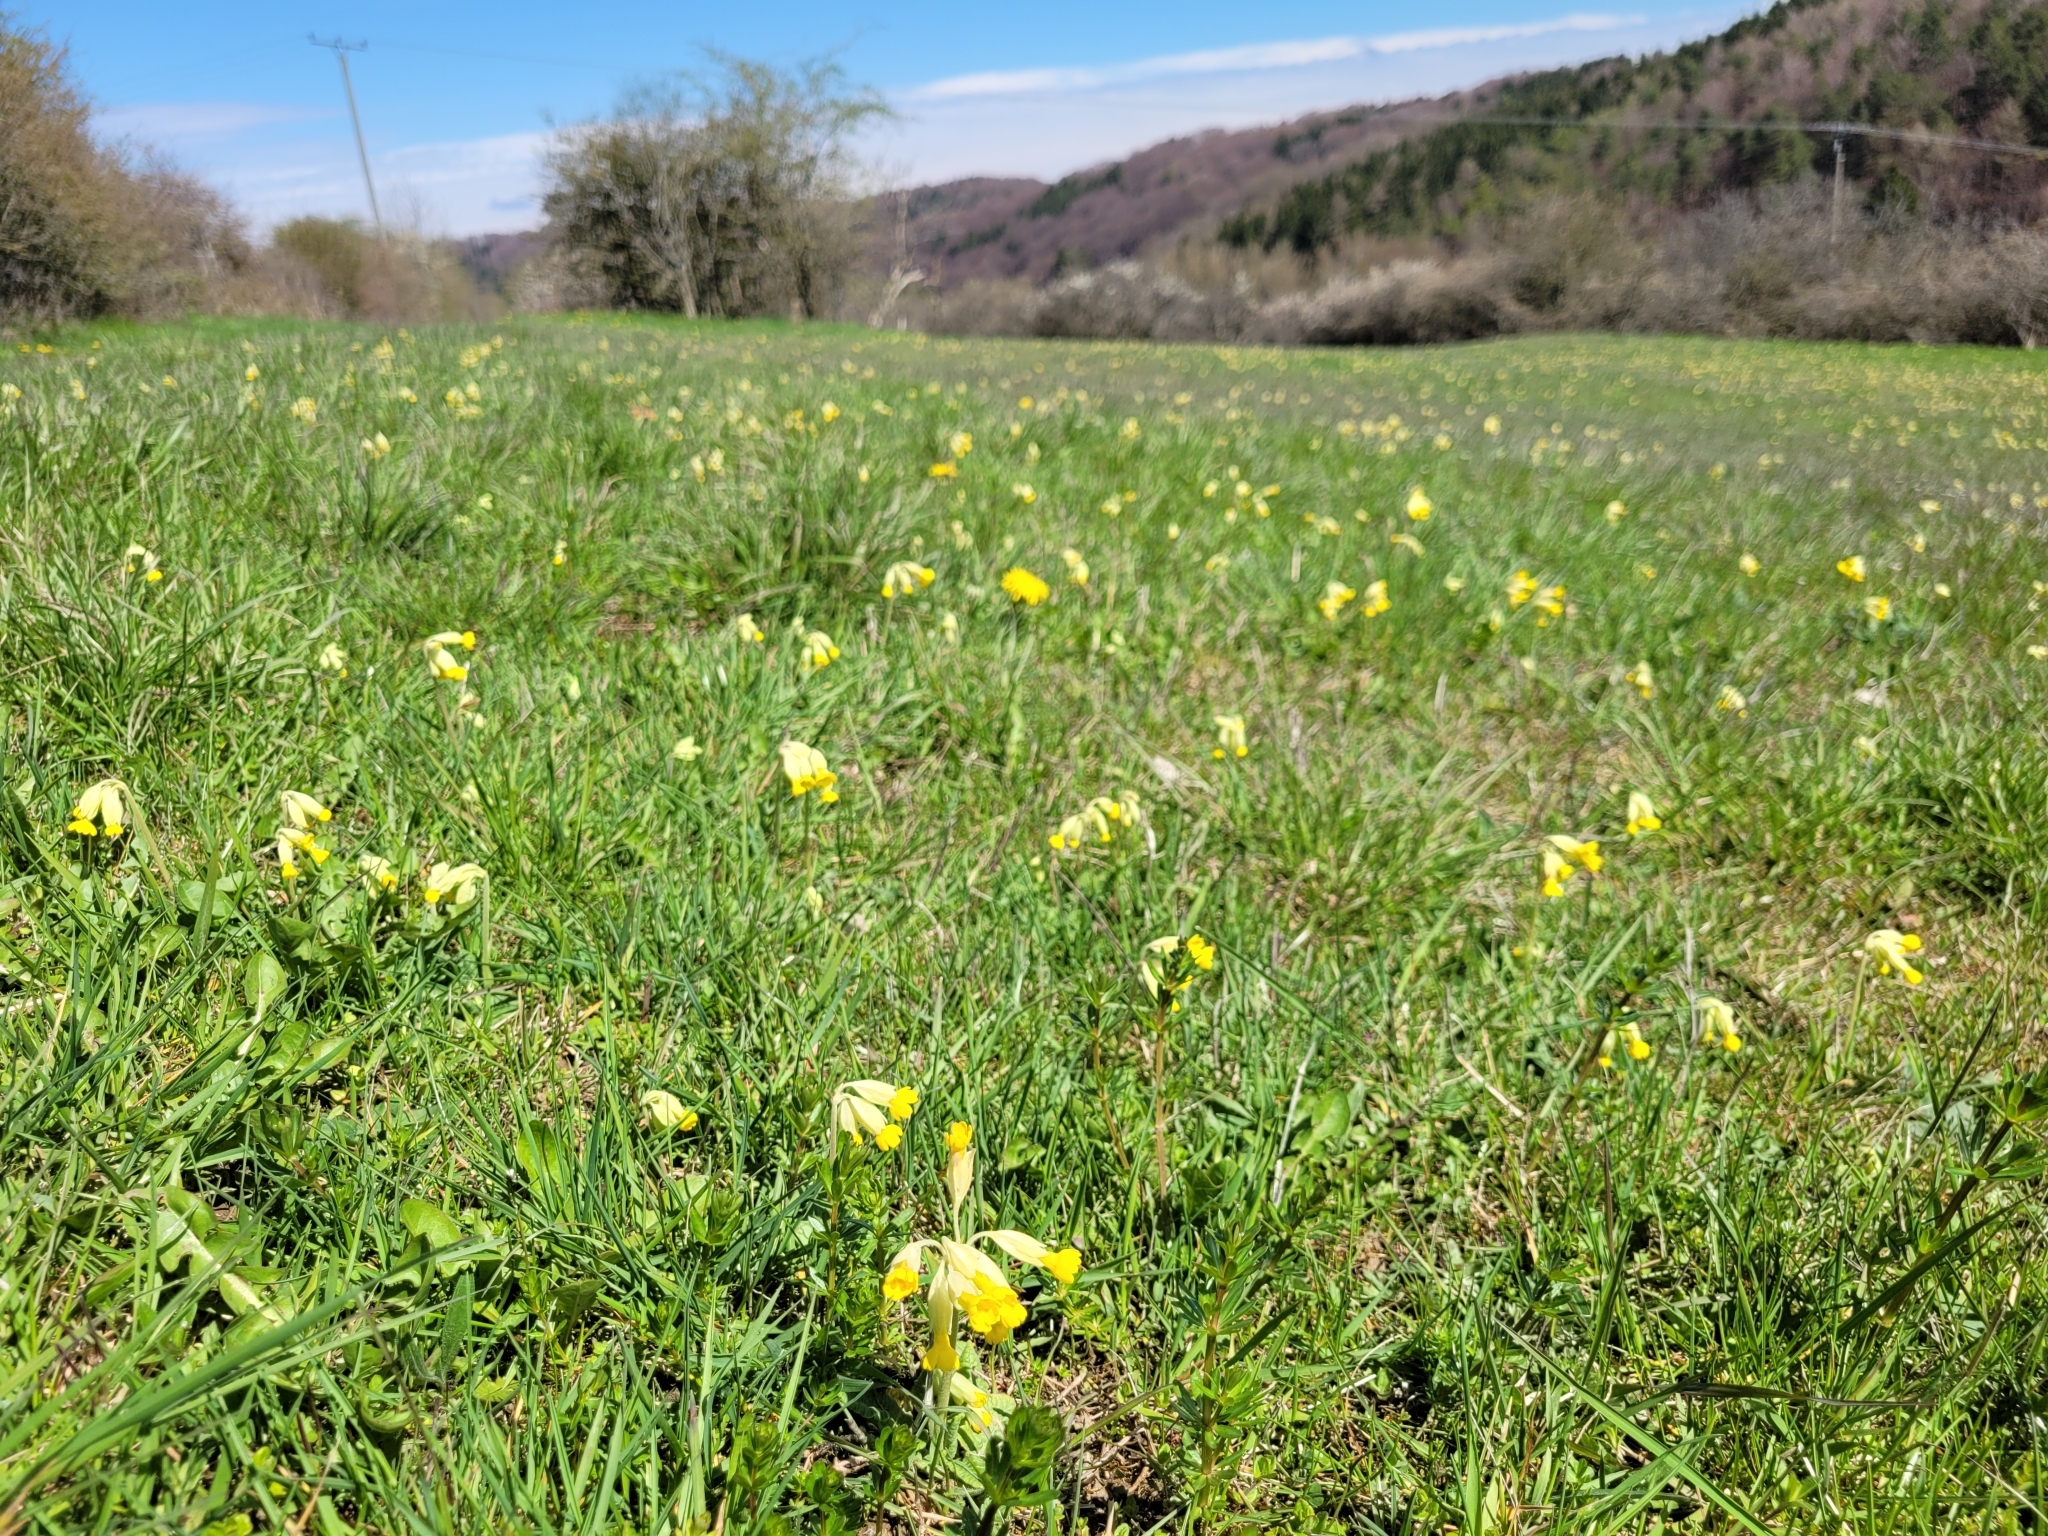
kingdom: Plantae
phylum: Tracheophyta
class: Magnoliopsida
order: Ericales
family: Primulaceae
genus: Primula
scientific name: Primula veris
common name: Cowslip
